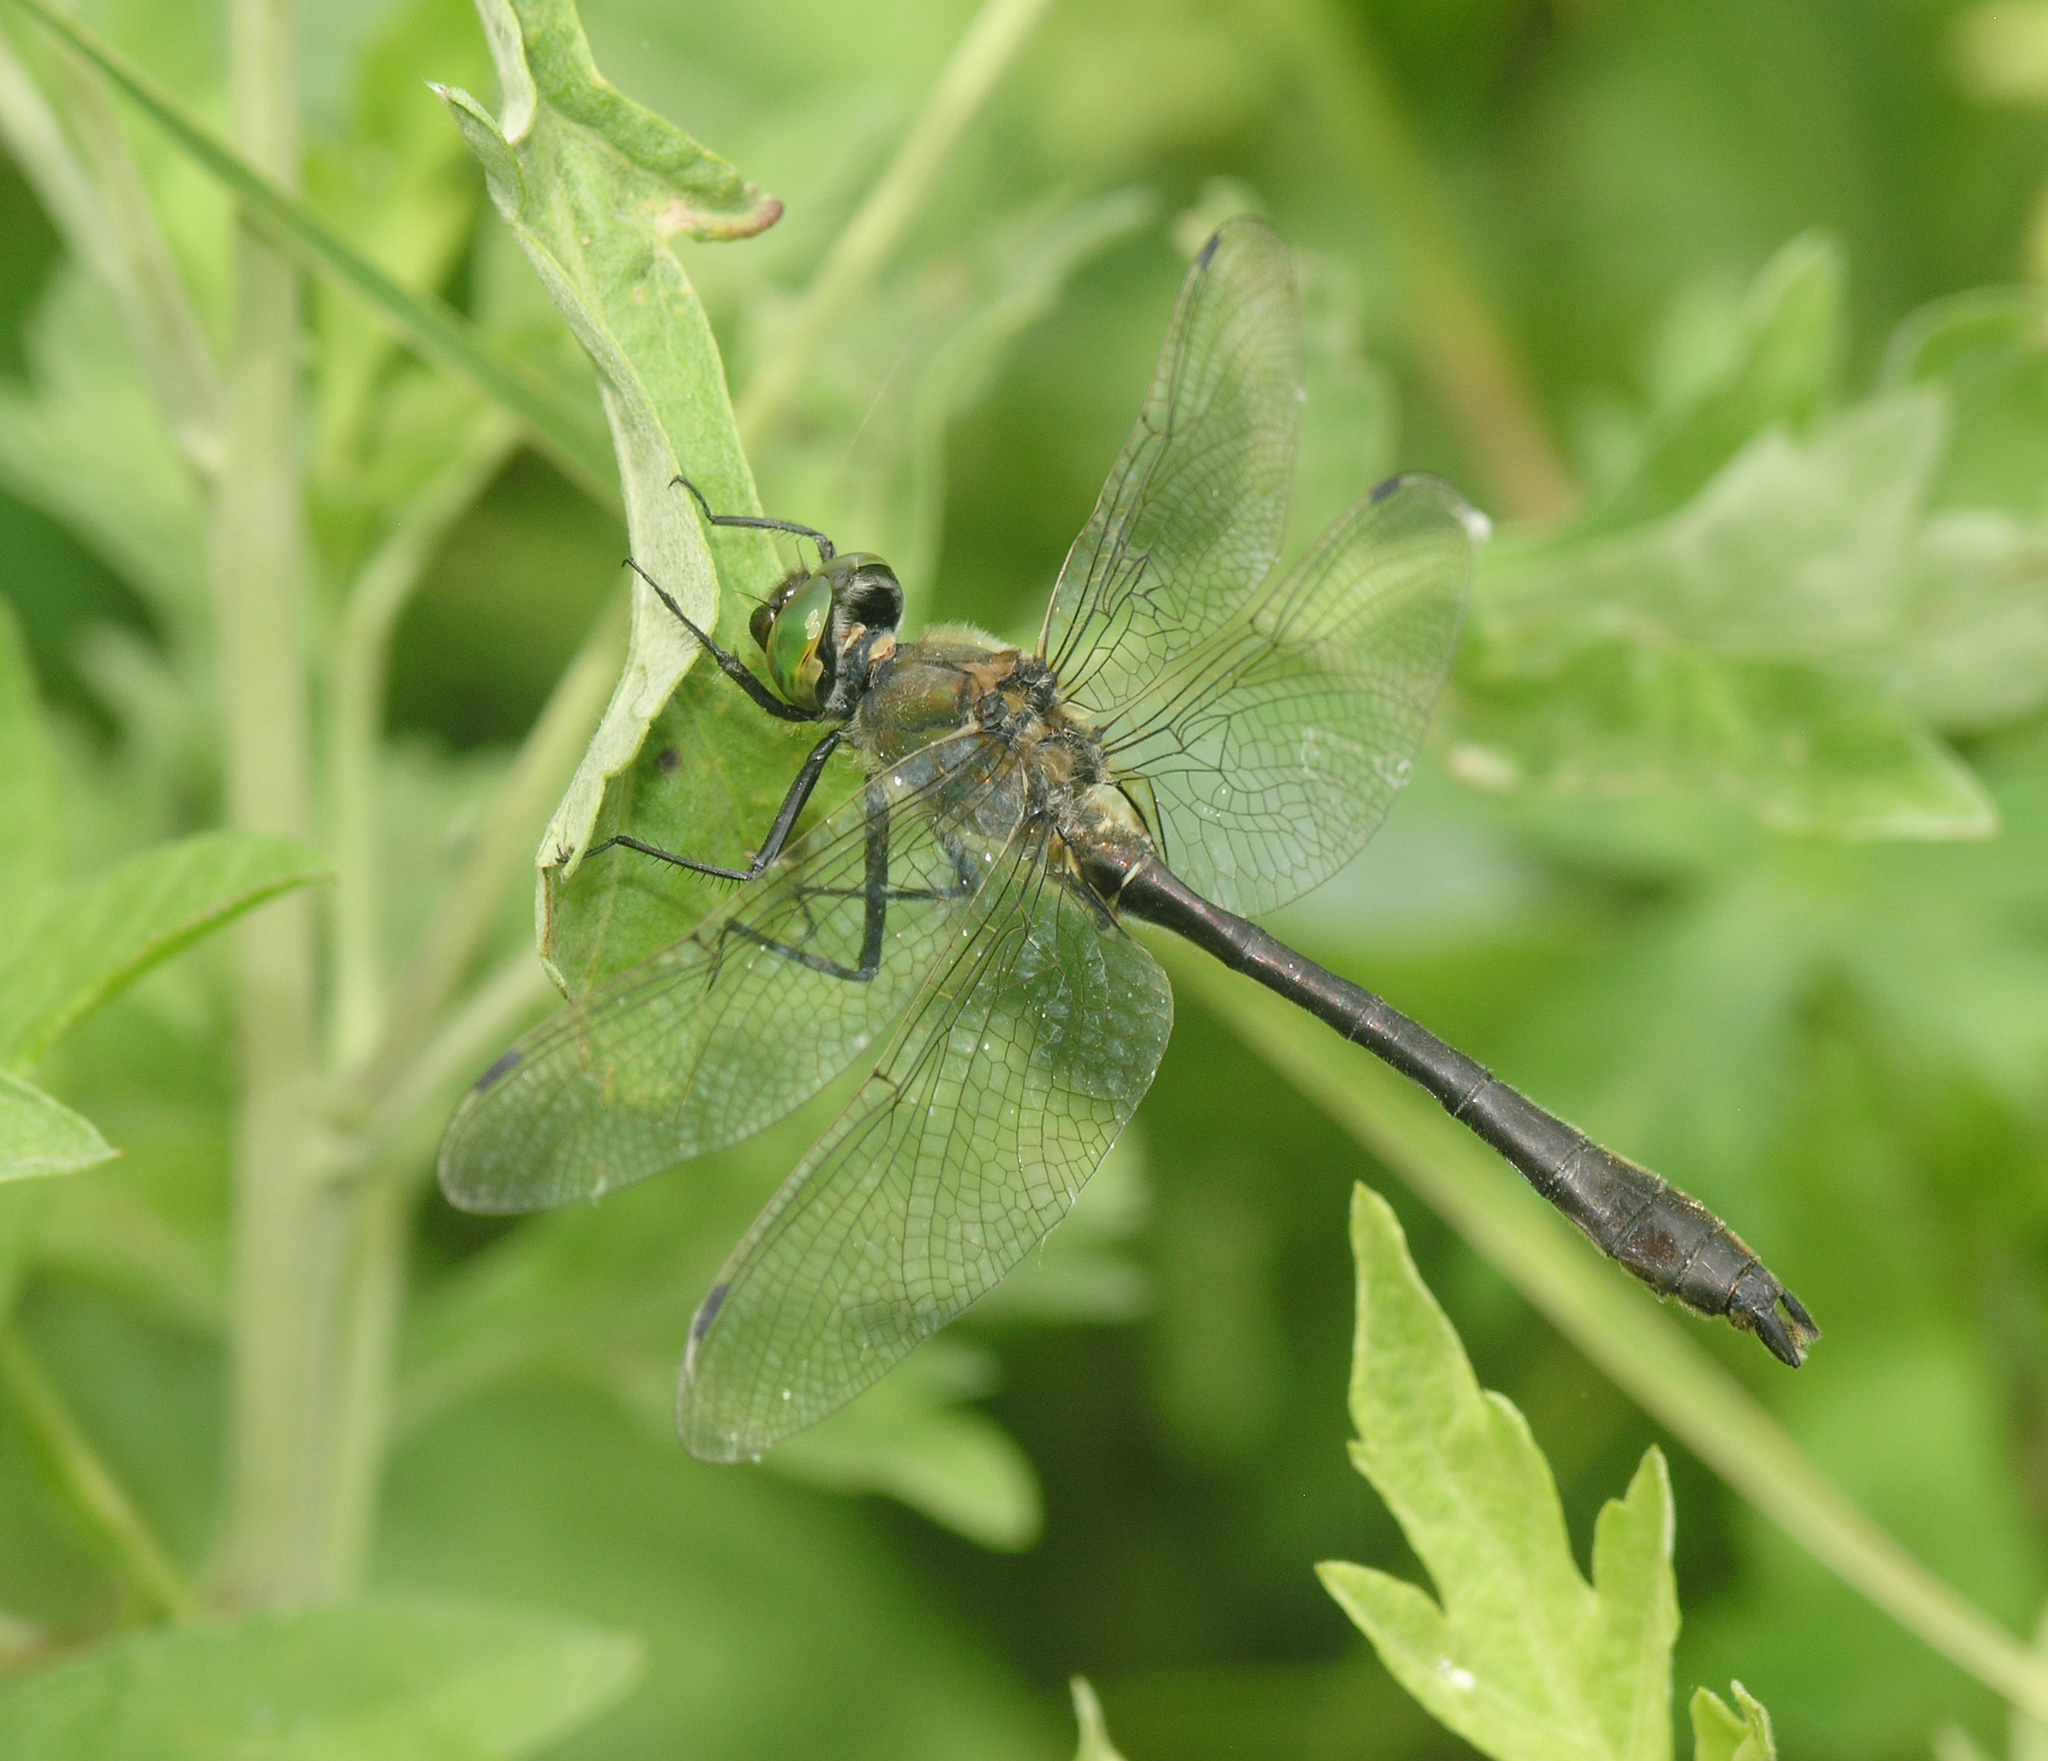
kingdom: Animalia
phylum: Arthropoda
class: Insecta
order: Odonata
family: Corduliidae
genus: Cordulia
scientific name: Cordulia aenea
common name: Downy emerald
